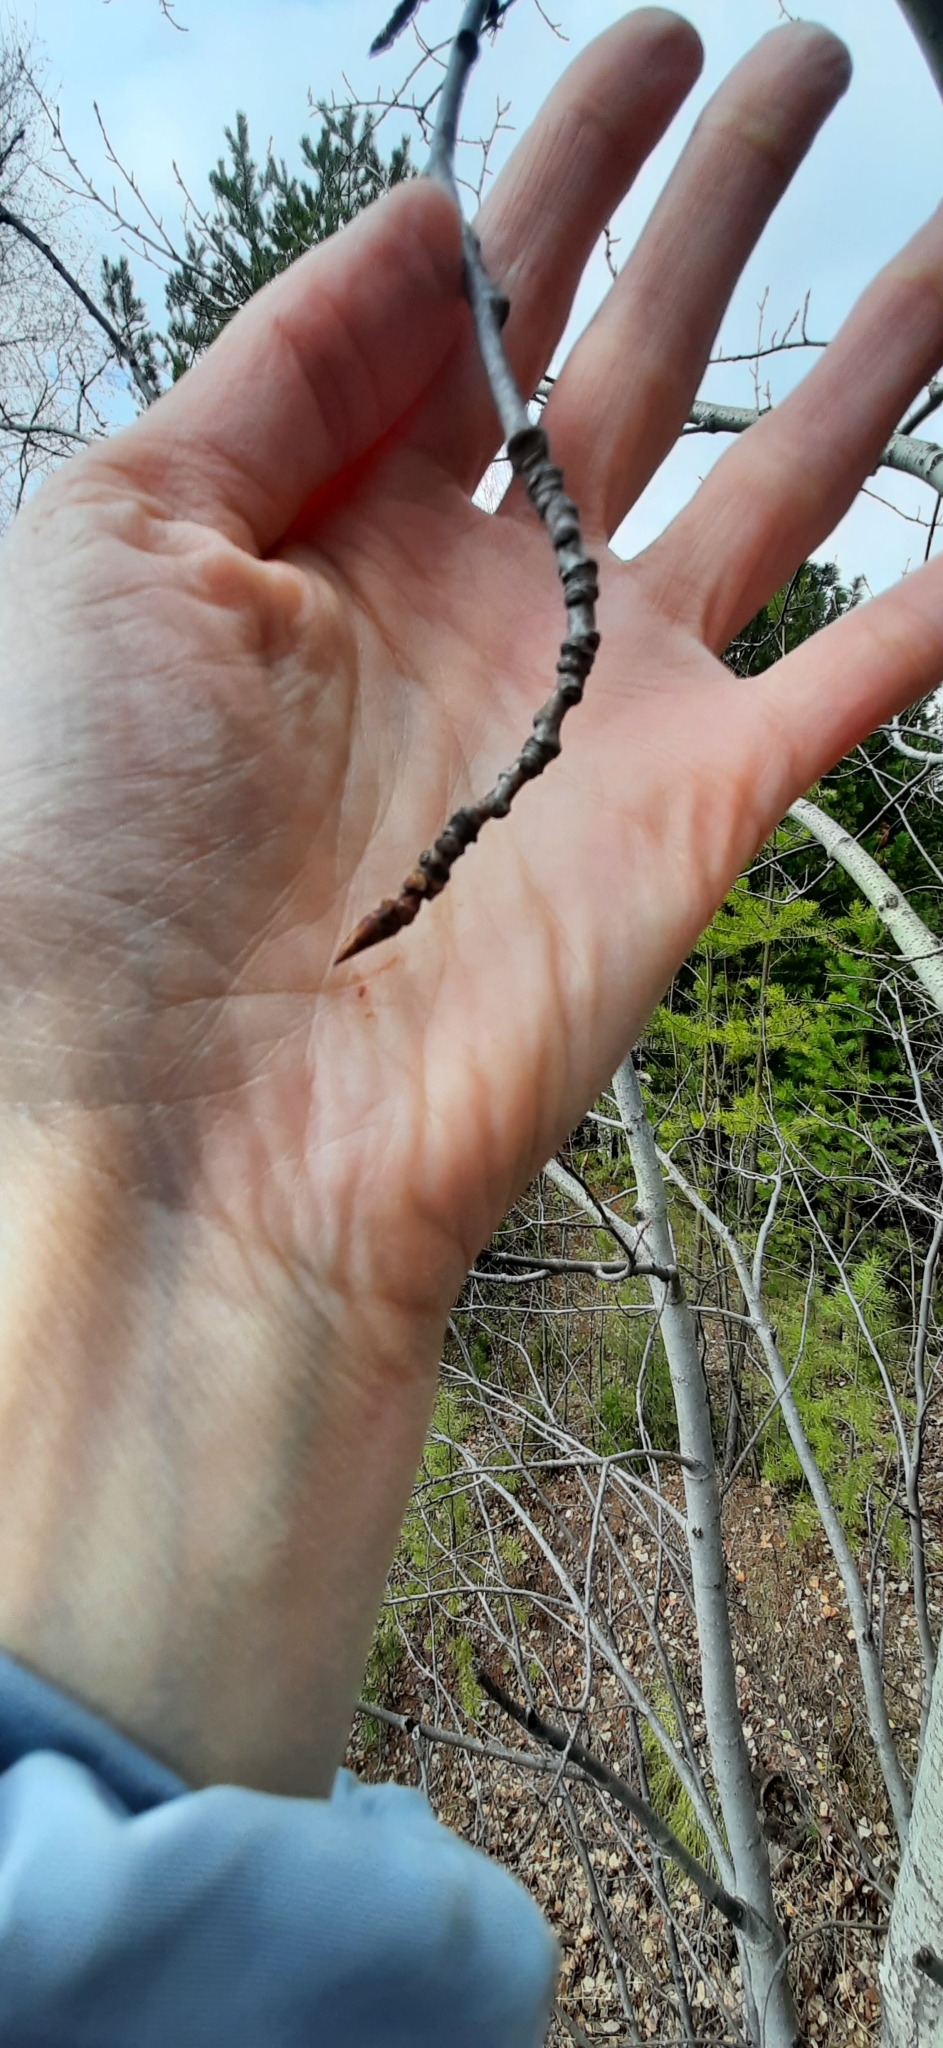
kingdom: Plantae
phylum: Tracheophyta
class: Magnoliopsida
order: Malpighiales
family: Salicaceae
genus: Populus
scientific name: Populus tremula
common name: European aspen
